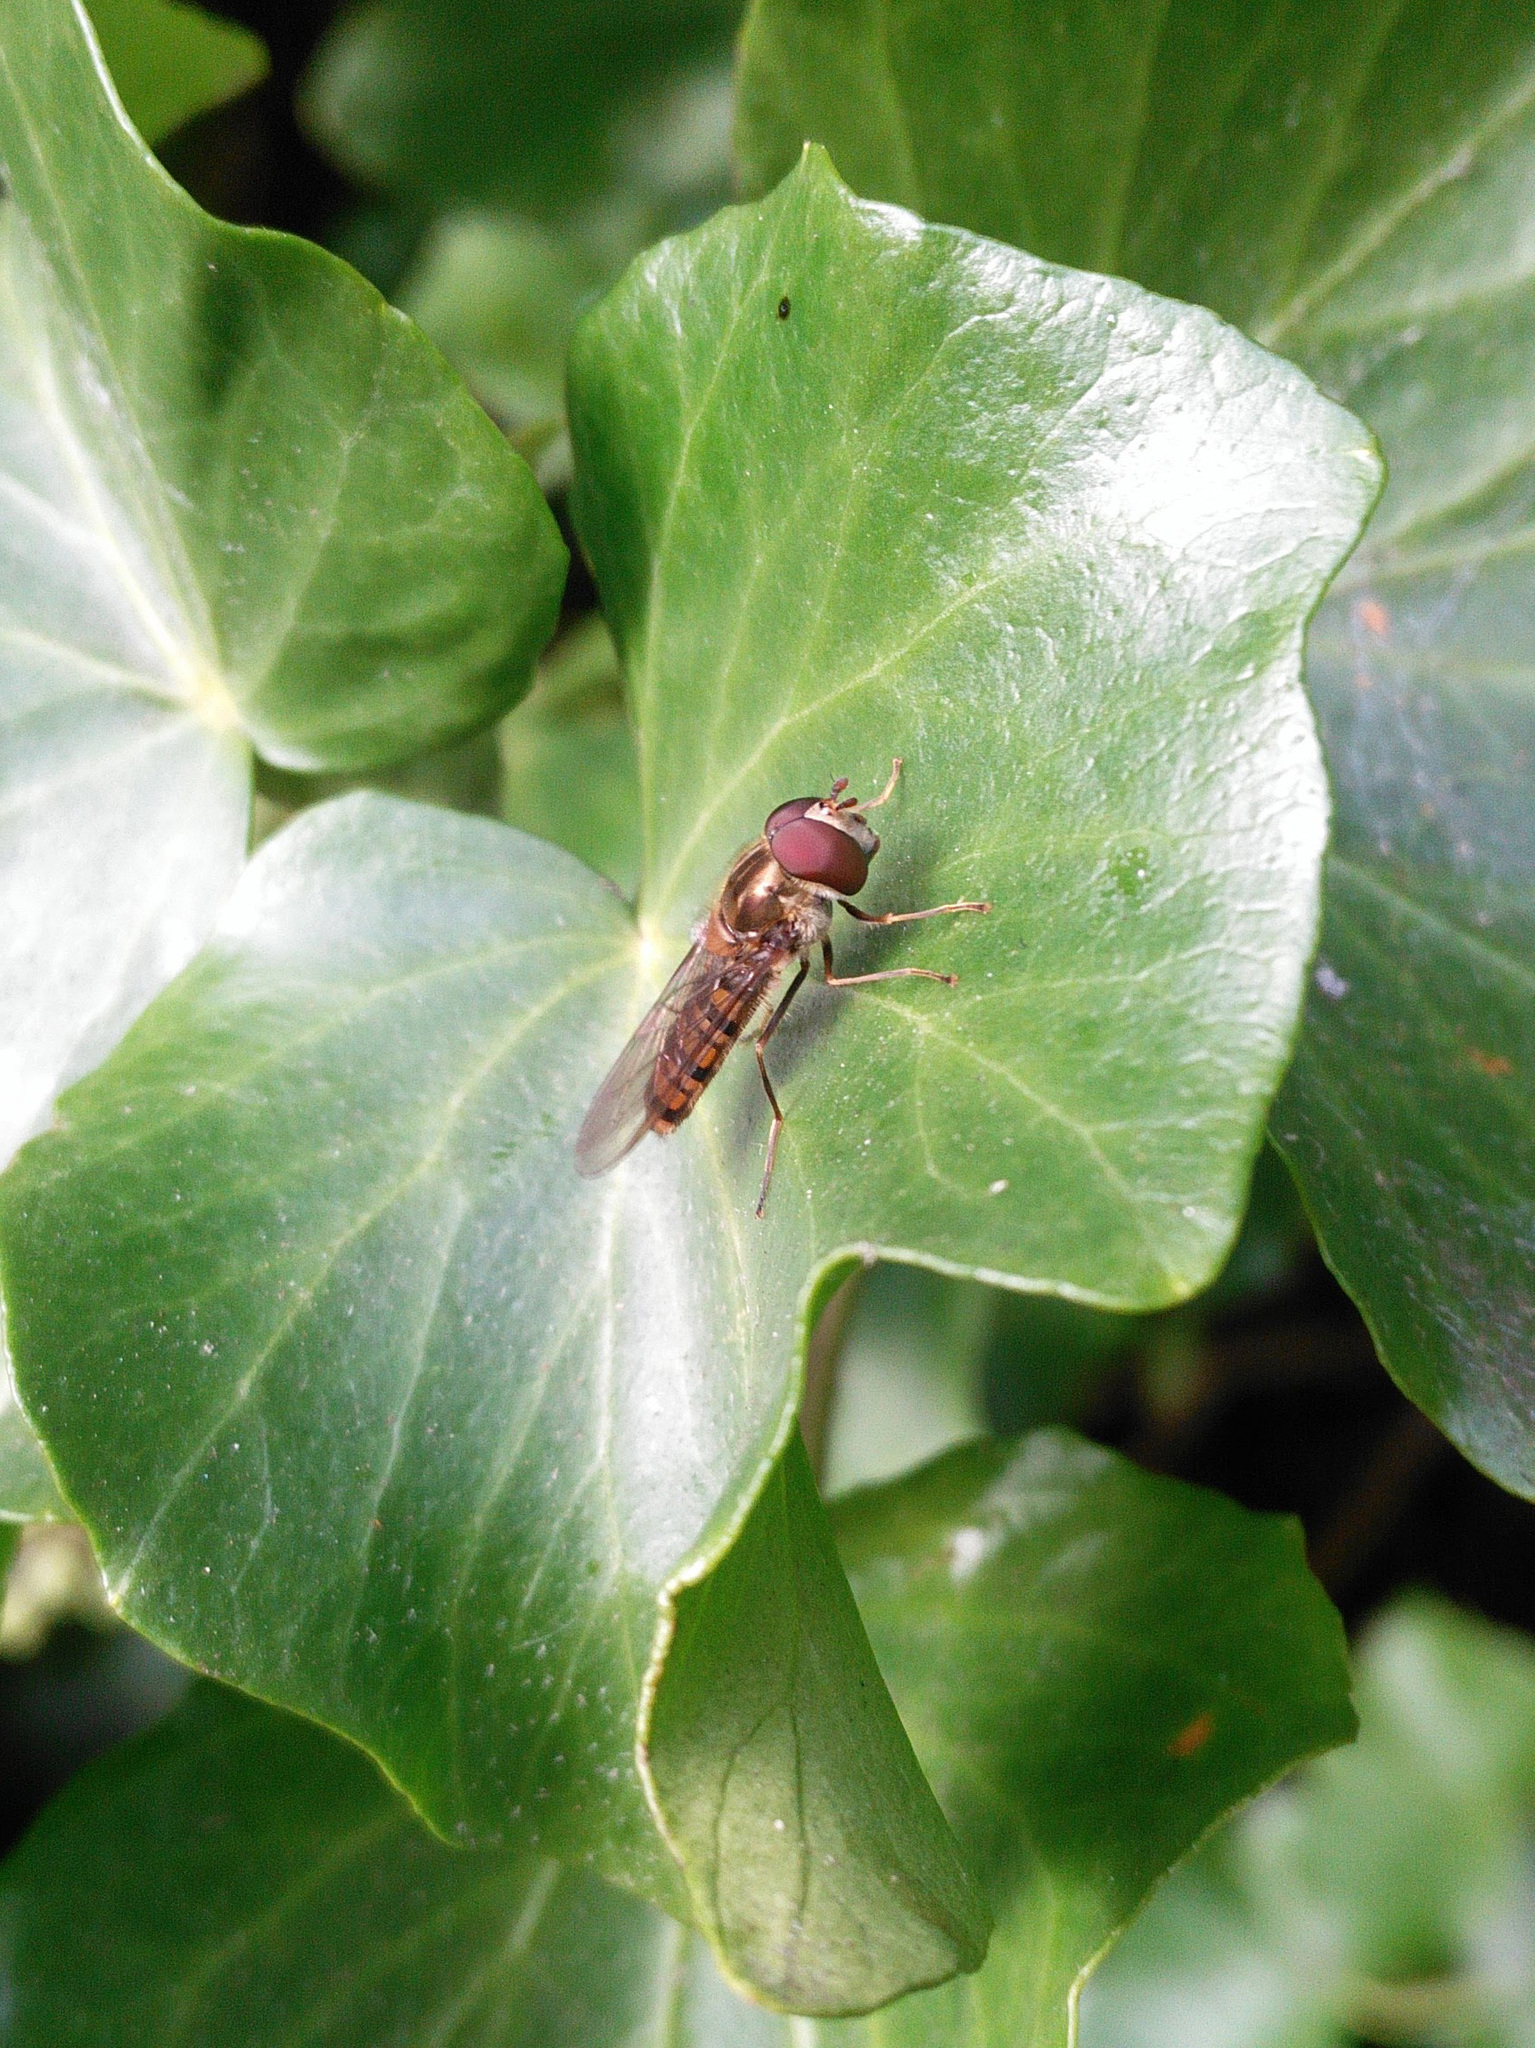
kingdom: Animalia
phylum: Arthropoda
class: Insecta
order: Diptera
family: Syrphidae
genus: Episyrphus
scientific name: Episyrphus balteatus
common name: Marmalade hoverfly
